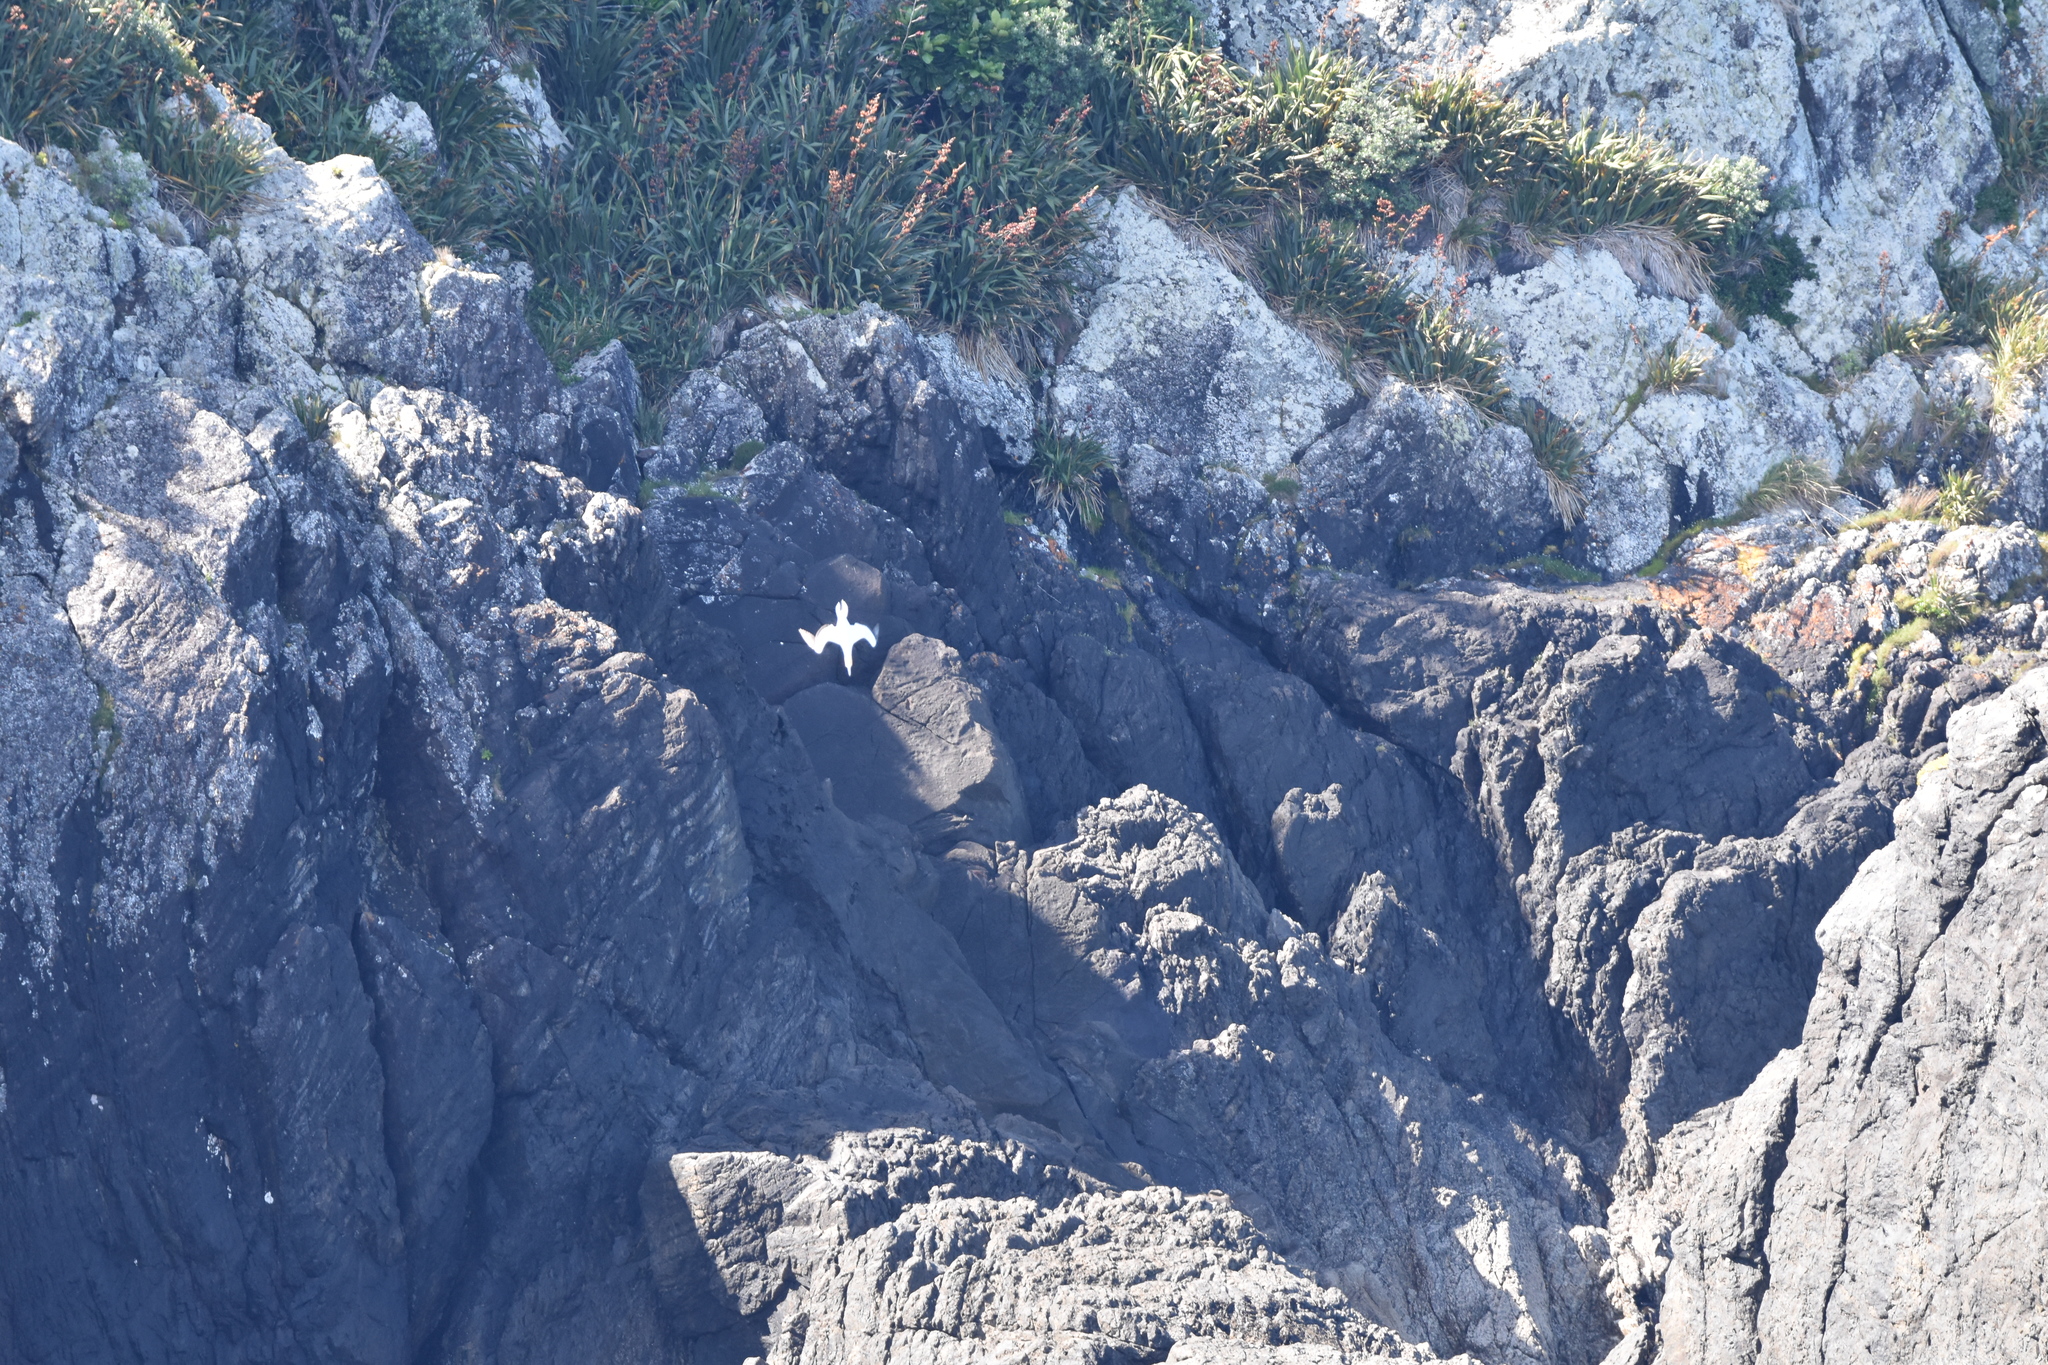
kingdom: Animalia
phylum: Chordata
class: Aves
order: Suliformes
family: Sulidae
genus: Morus
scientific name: Morus serrator
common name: Australasian gannet
